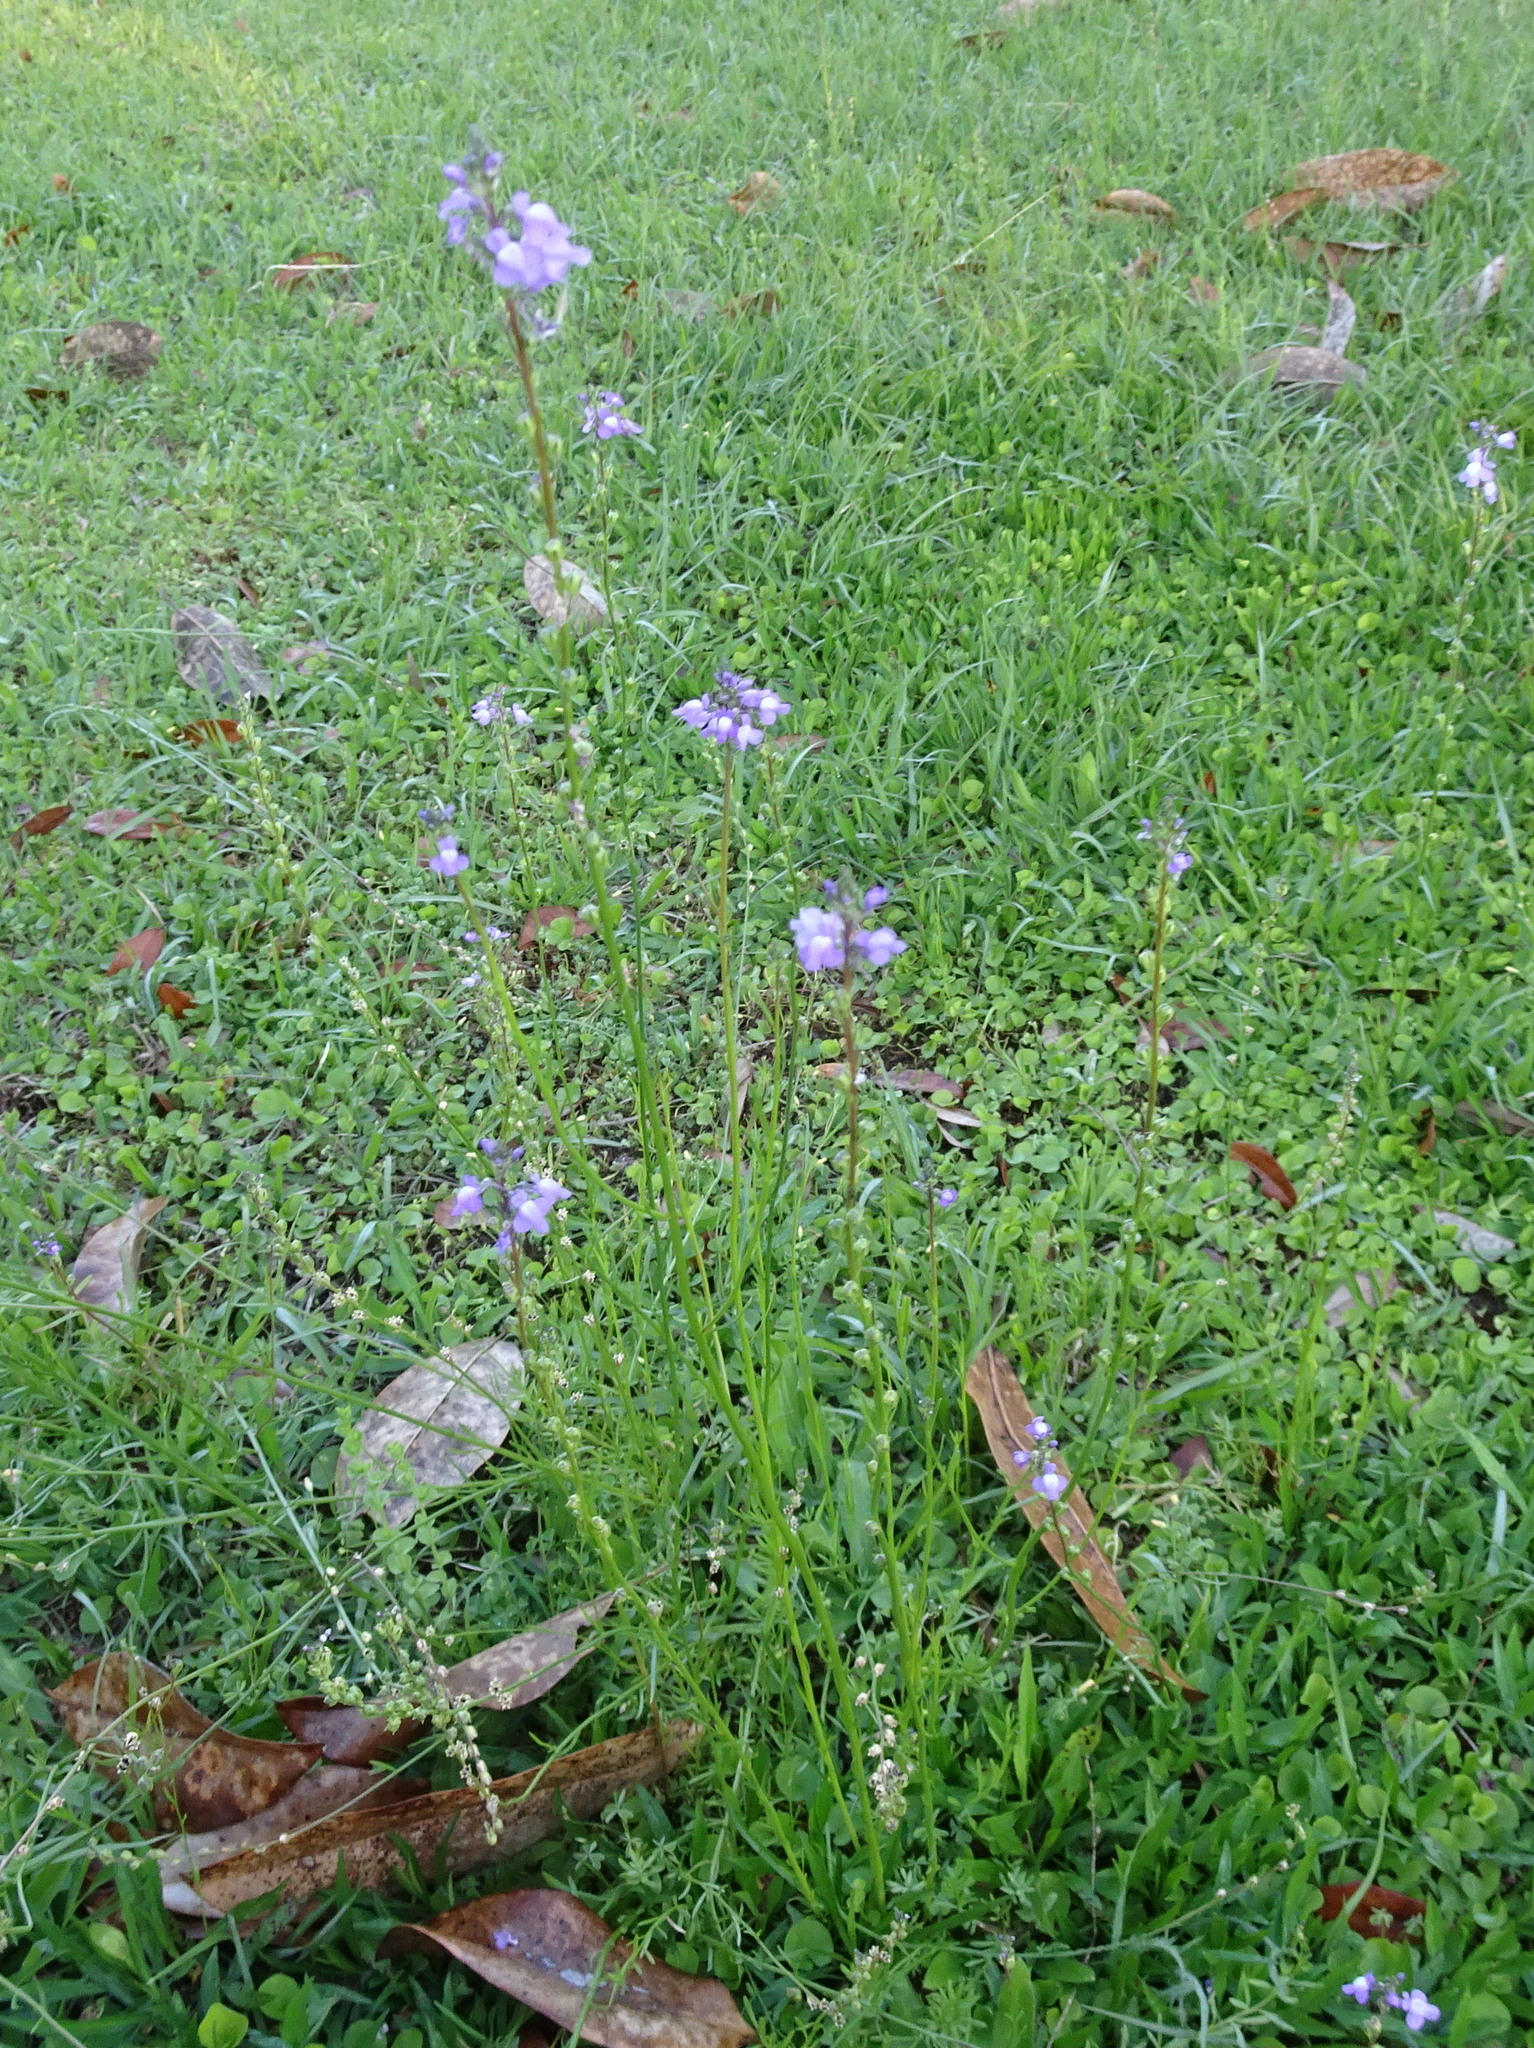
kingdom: Plantae
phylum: Tracheophyta
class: Magnoliopsida
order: Lamiales
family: Plantaginaceae
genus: Nuttallanthus
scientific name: Nuttallanthus canadensis
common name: Blue toadflax
